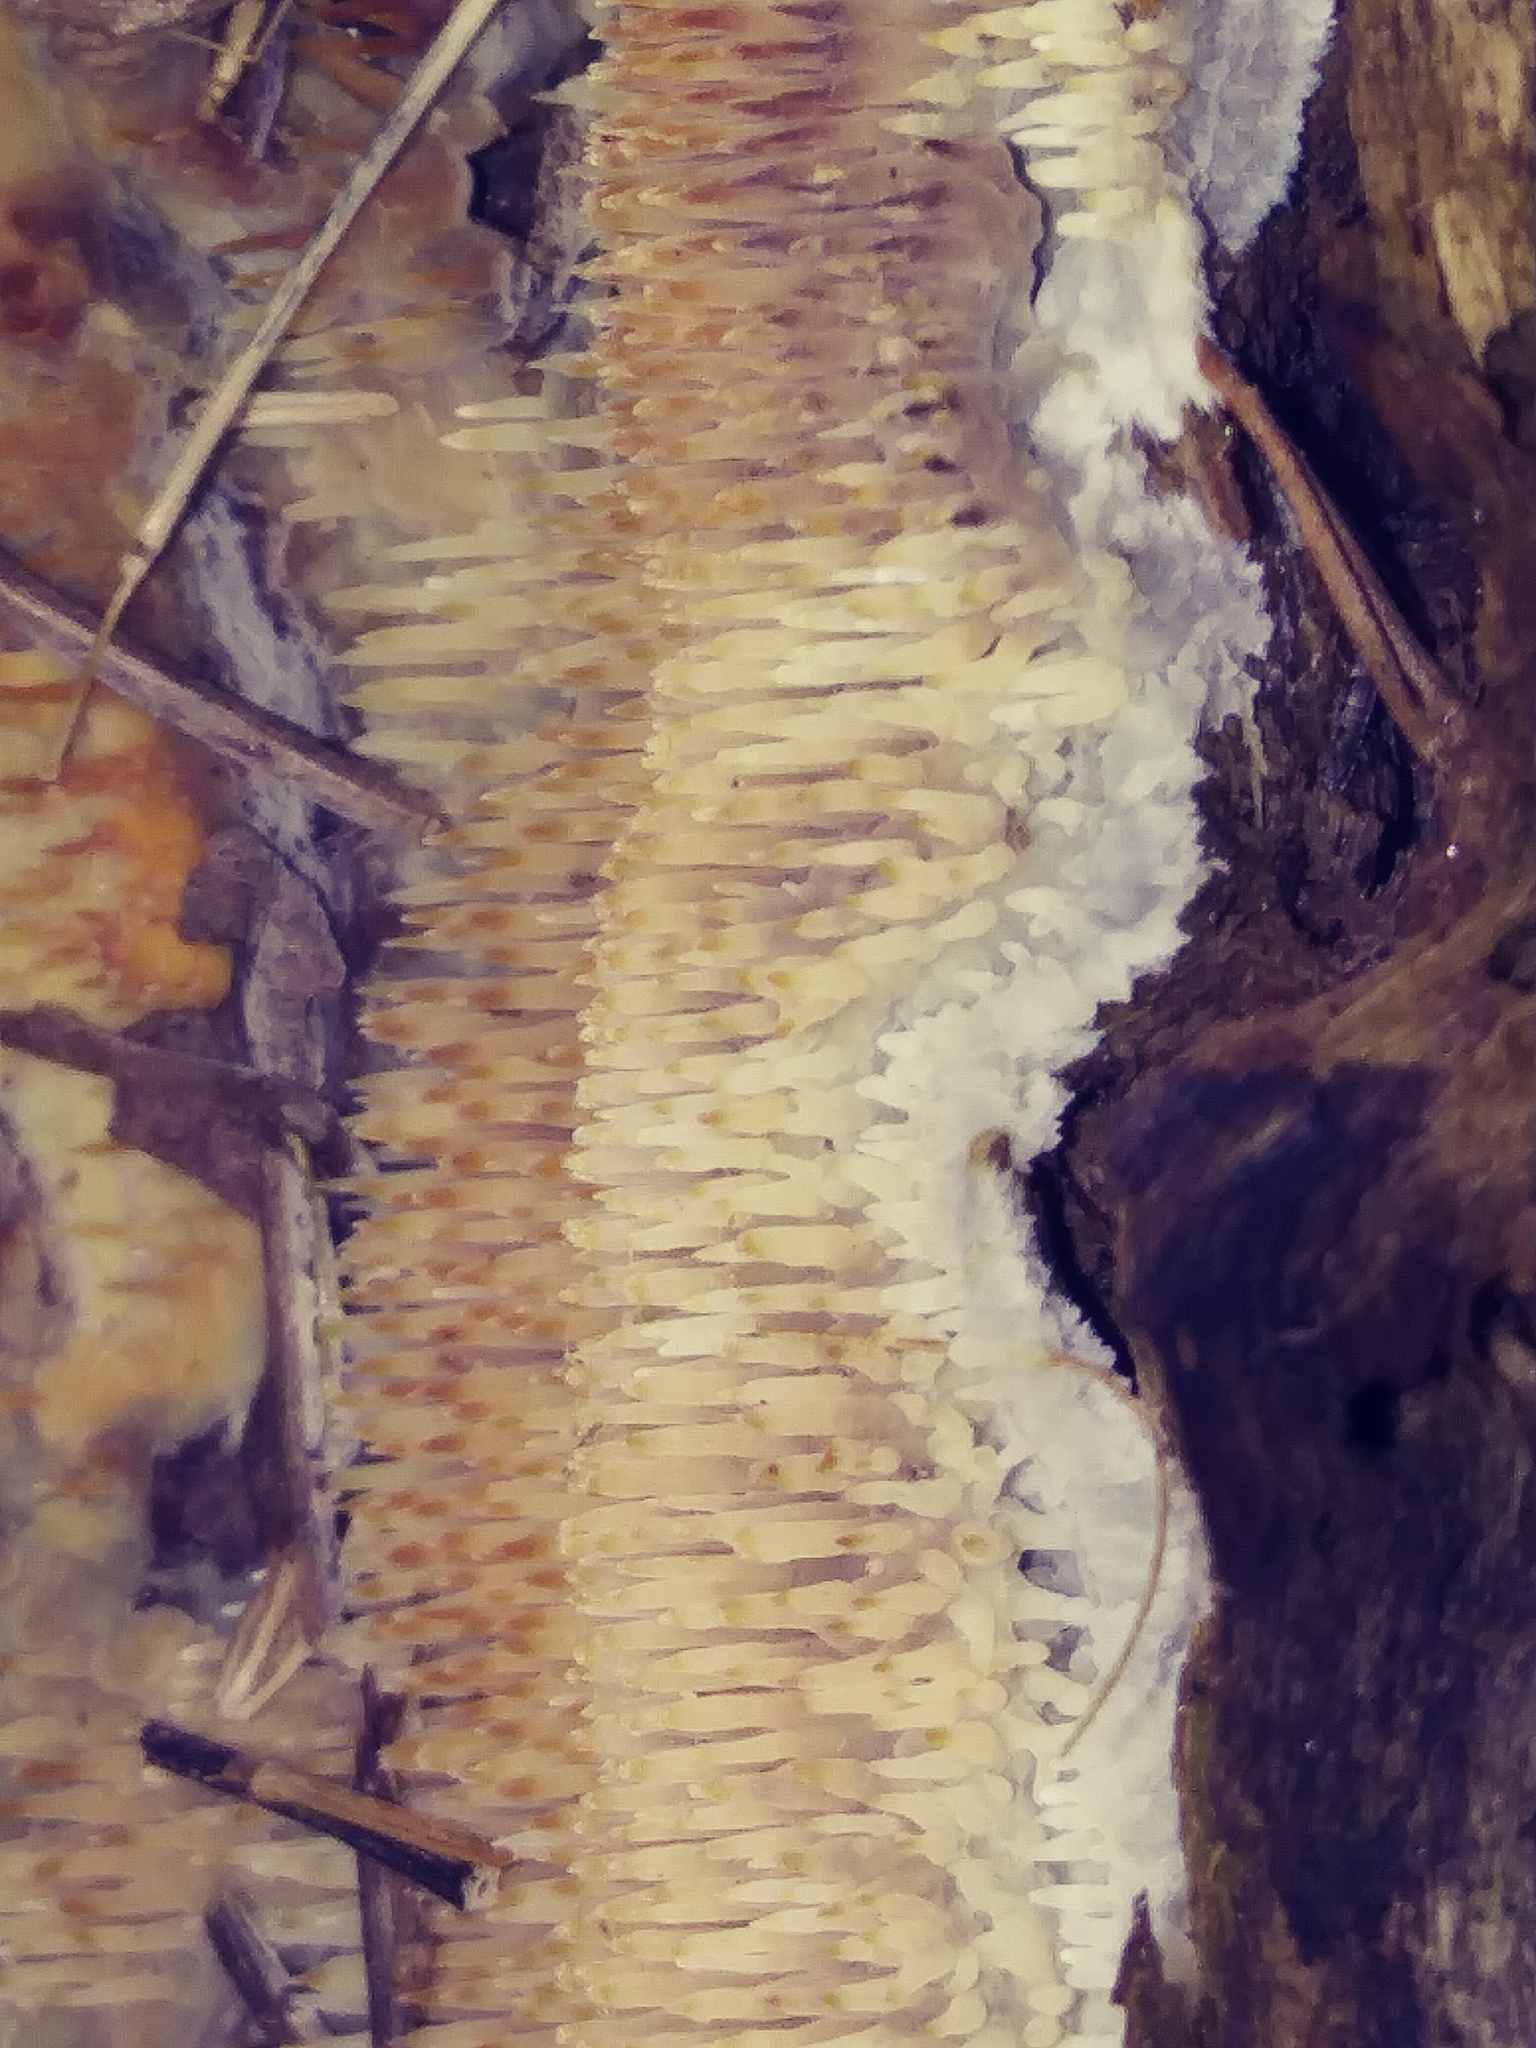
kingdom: Fungi
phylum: Basidiomycota
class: Agaricomycetes
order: Agaricales
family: Radulomycetaceae
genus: Radulomyces
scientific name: Radulomyces copelandii
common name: Asian beauty
